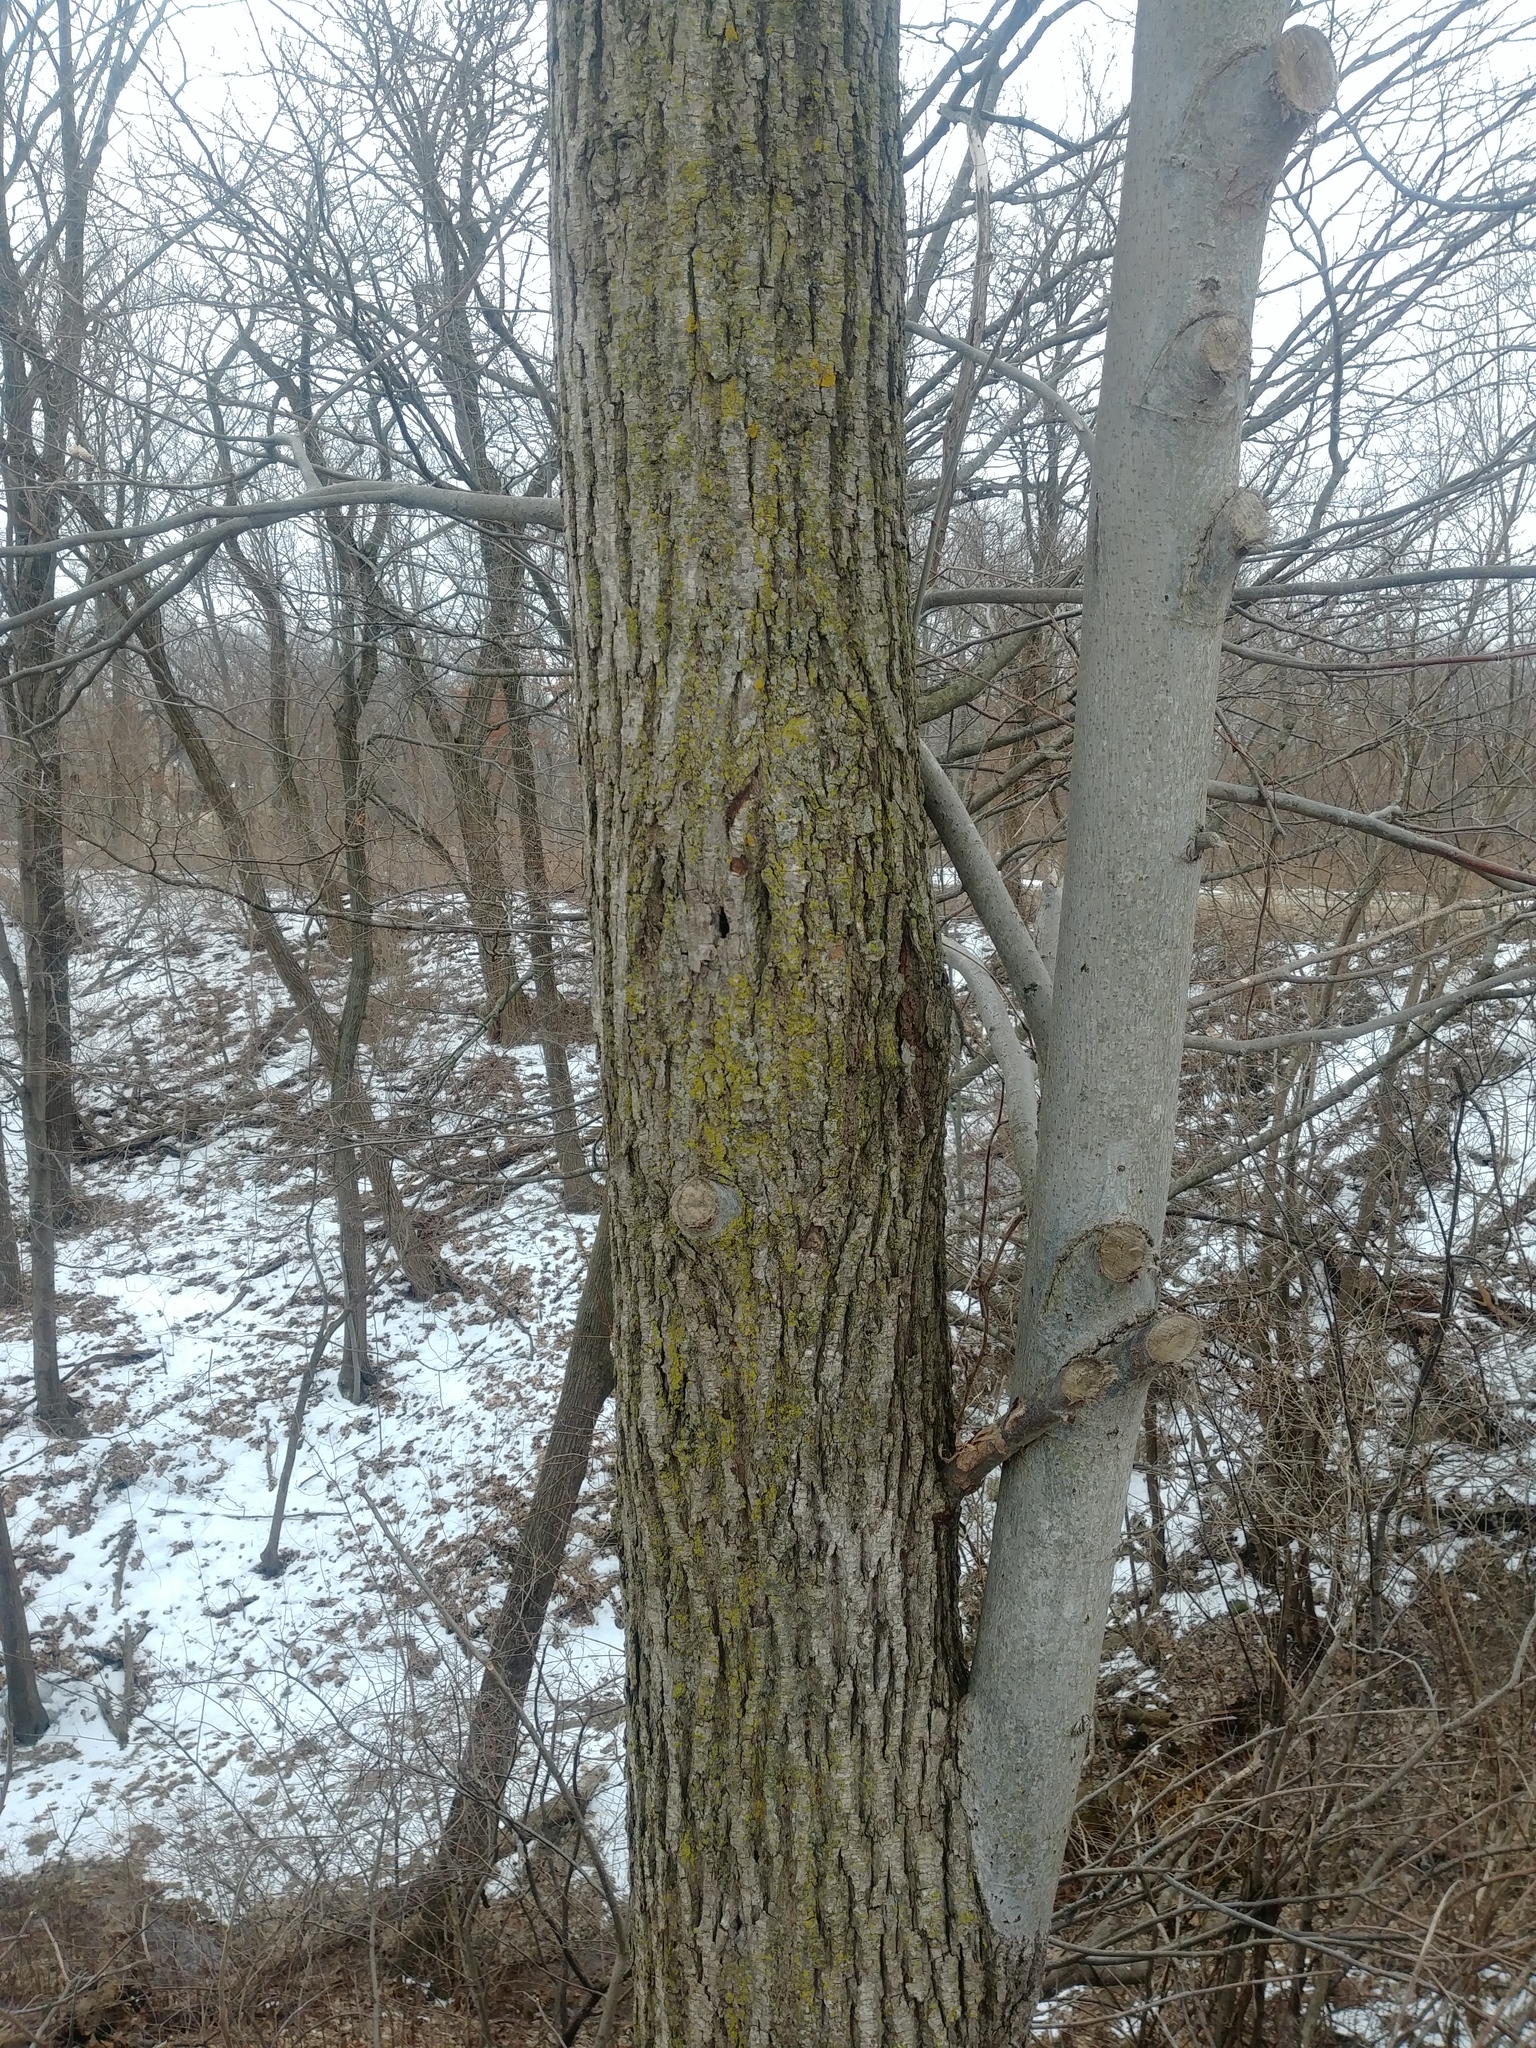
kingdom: Plantae
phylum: Tracheophyta
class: Magnoliopsida
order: Malvales
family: Malvaceae
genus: Tilia
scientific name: Tilia americana
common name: Basswood
